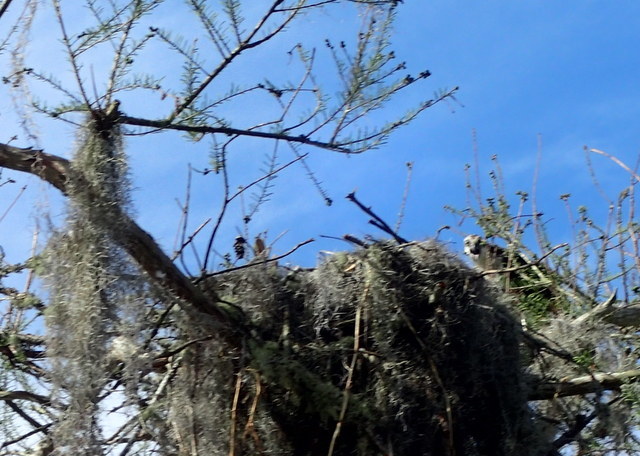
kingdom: Animalia
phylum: Chordata
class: Aves
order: Accipitriformes
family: Pandionidae
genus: Pandion
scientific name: Pandion haliaetus
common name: Osprey
